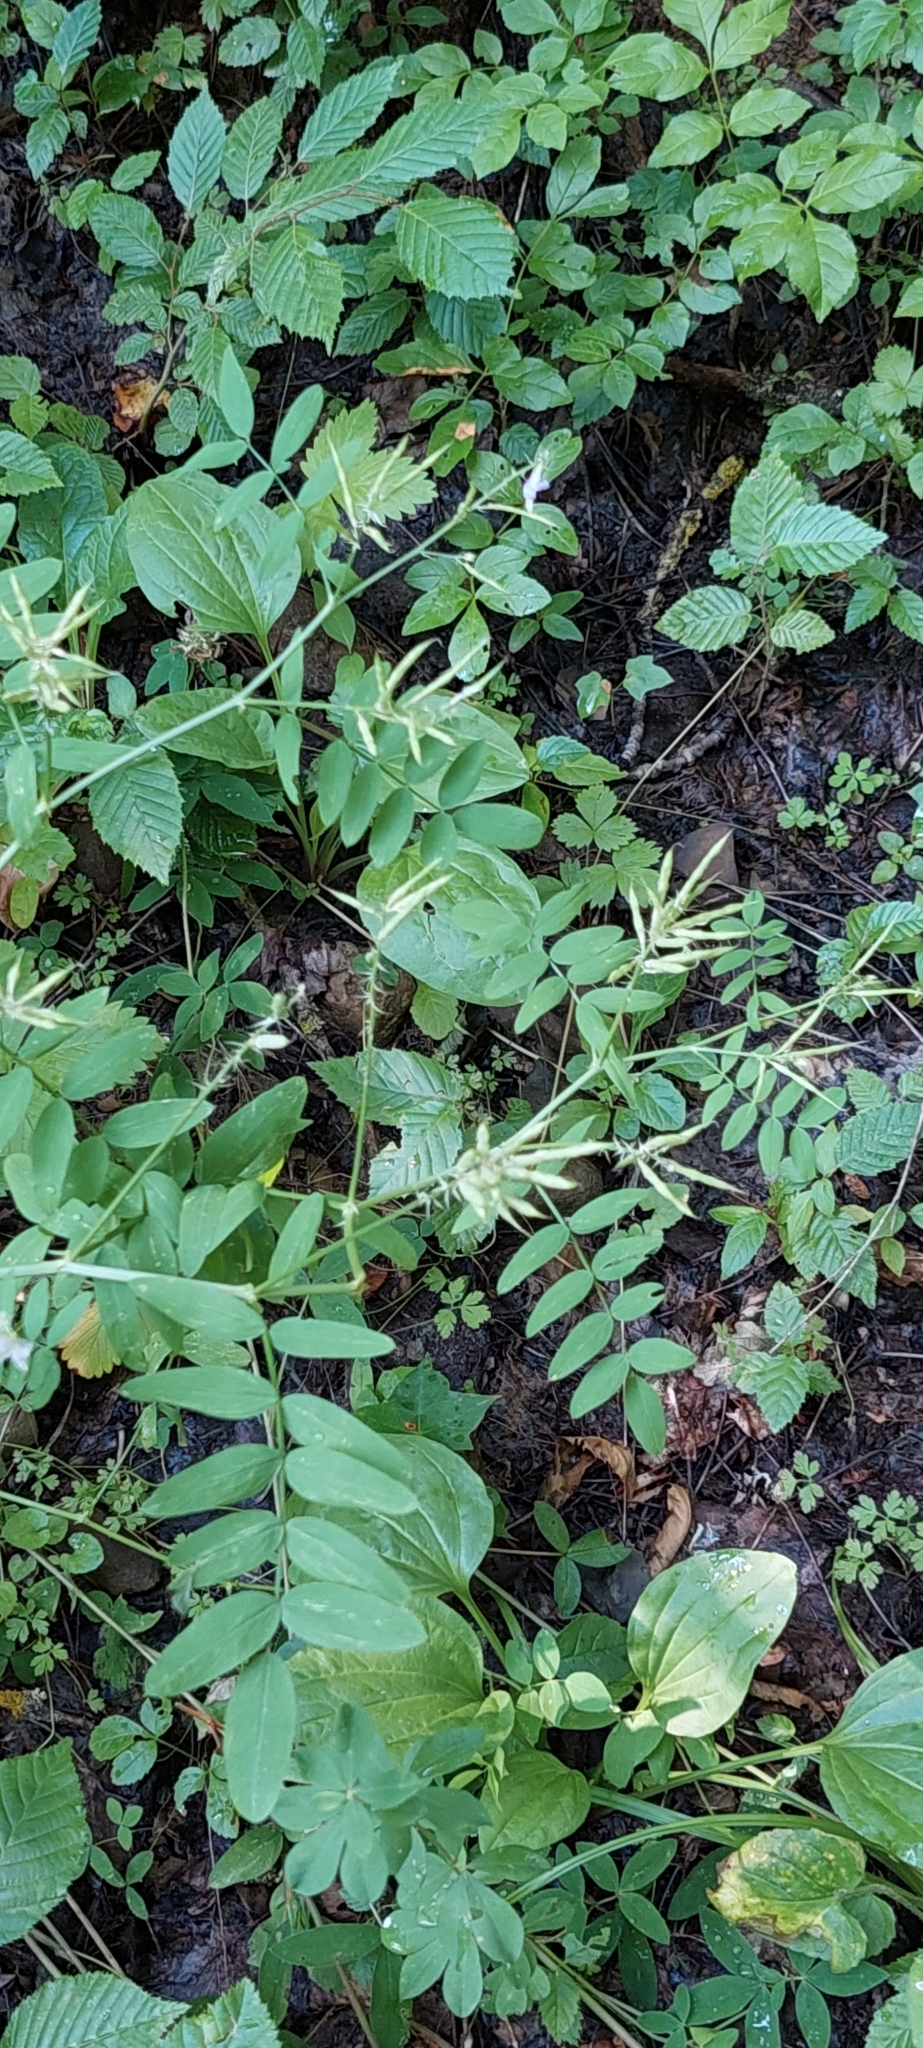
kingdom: Plantae
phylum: Tracheophyta
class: Magnoliopsida
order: Fabales
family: Fabaceae
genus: Galega
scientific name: Galega officinalis
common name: Goat's-rue
